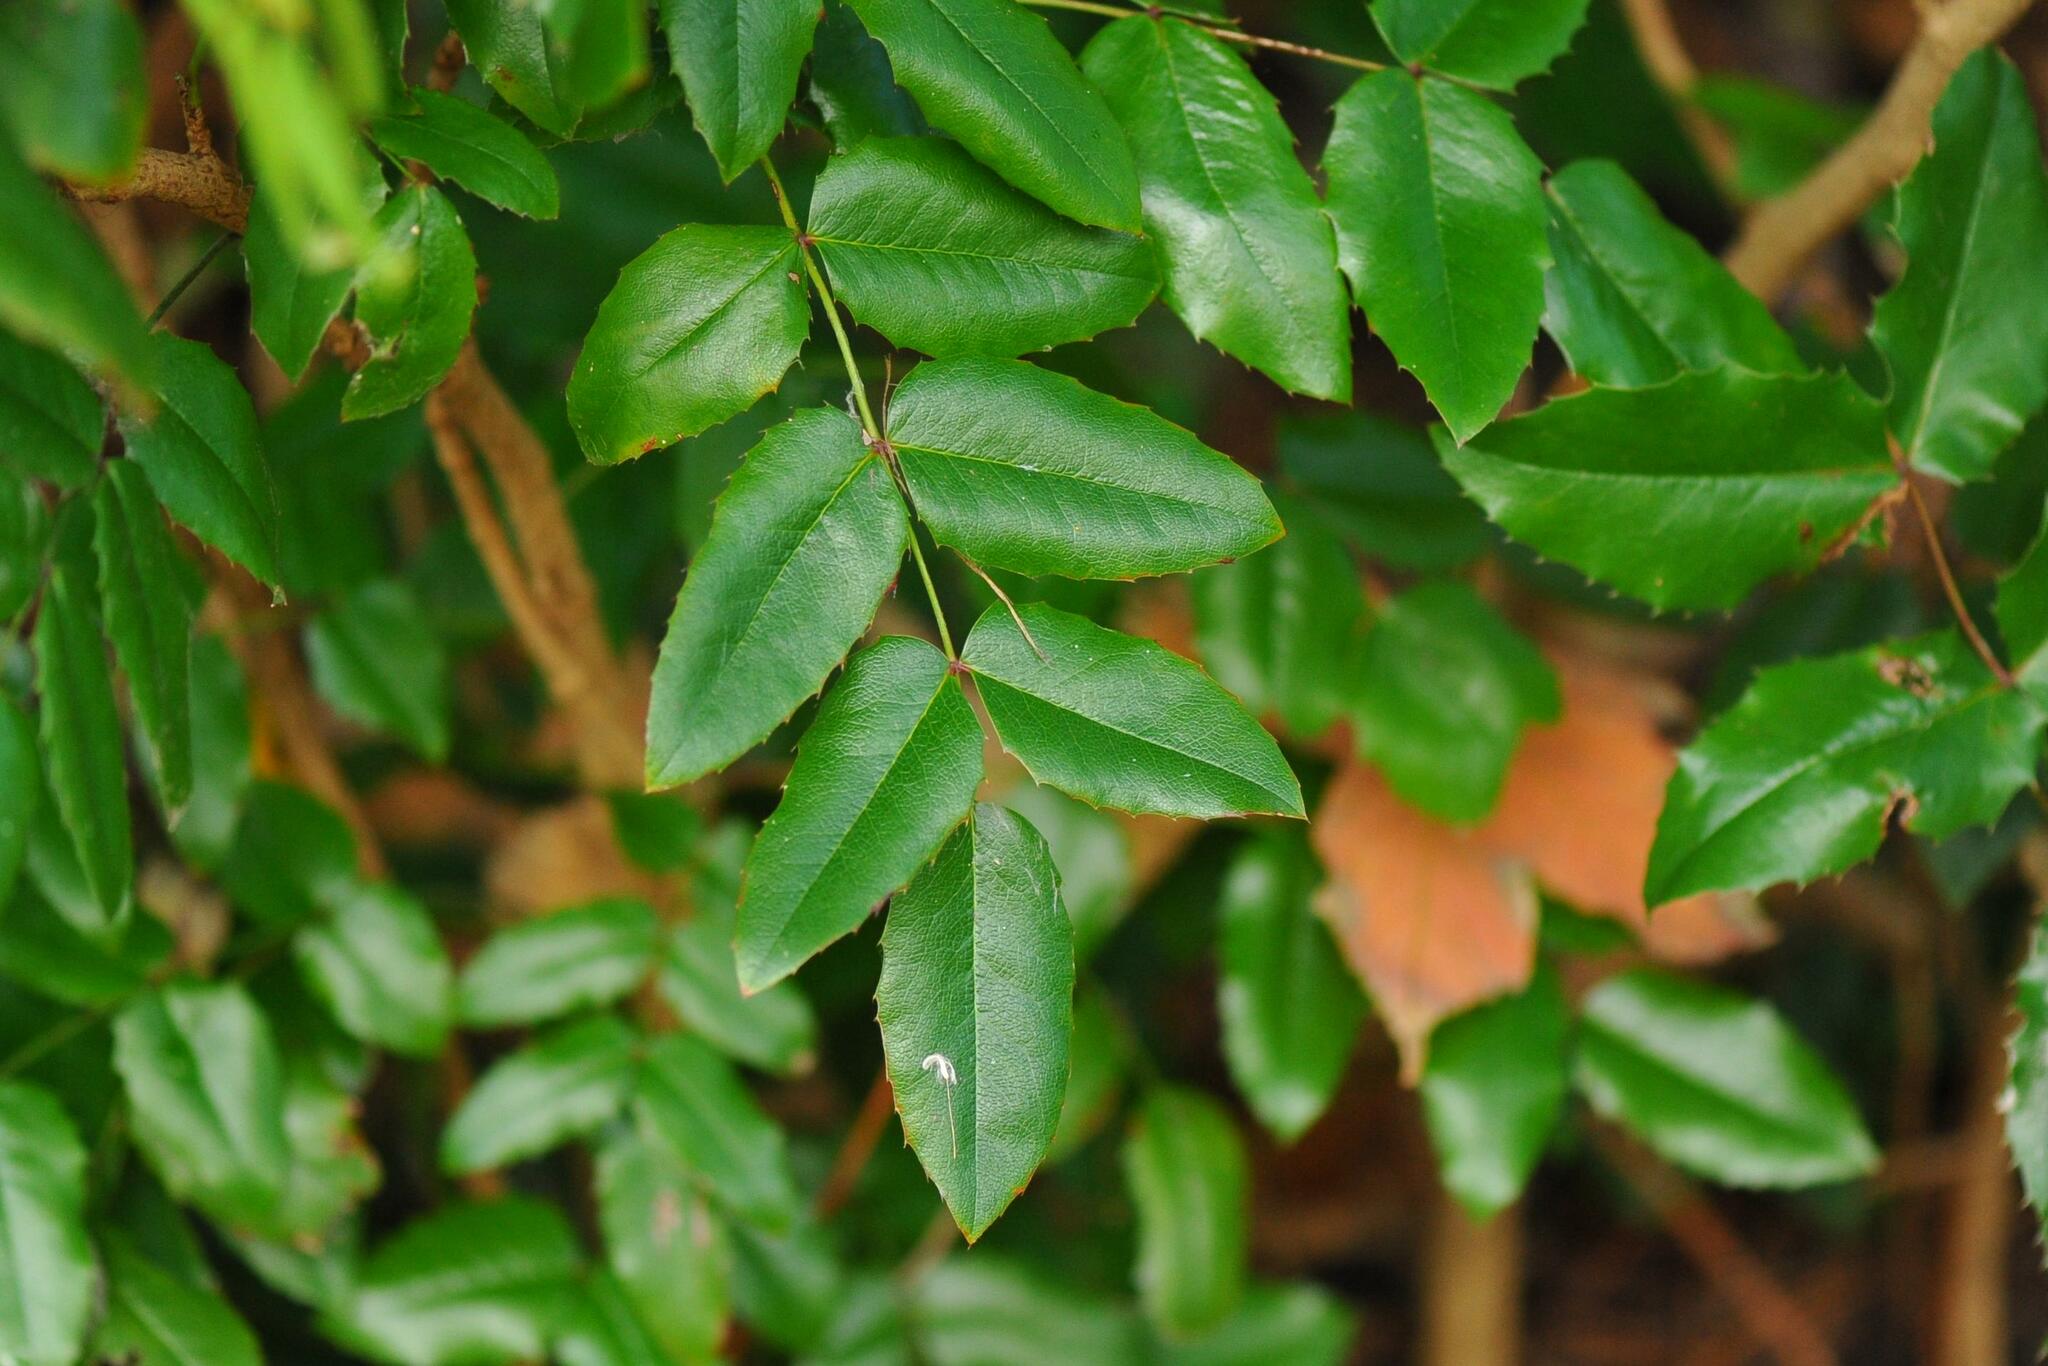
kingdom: Plantae
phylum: Tracheophyta
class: Magnoliopsida
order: Ranunculales
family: Berberidaceae
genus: Mahonia
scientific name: Mahonia aquifolium
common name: Oregon-grape
